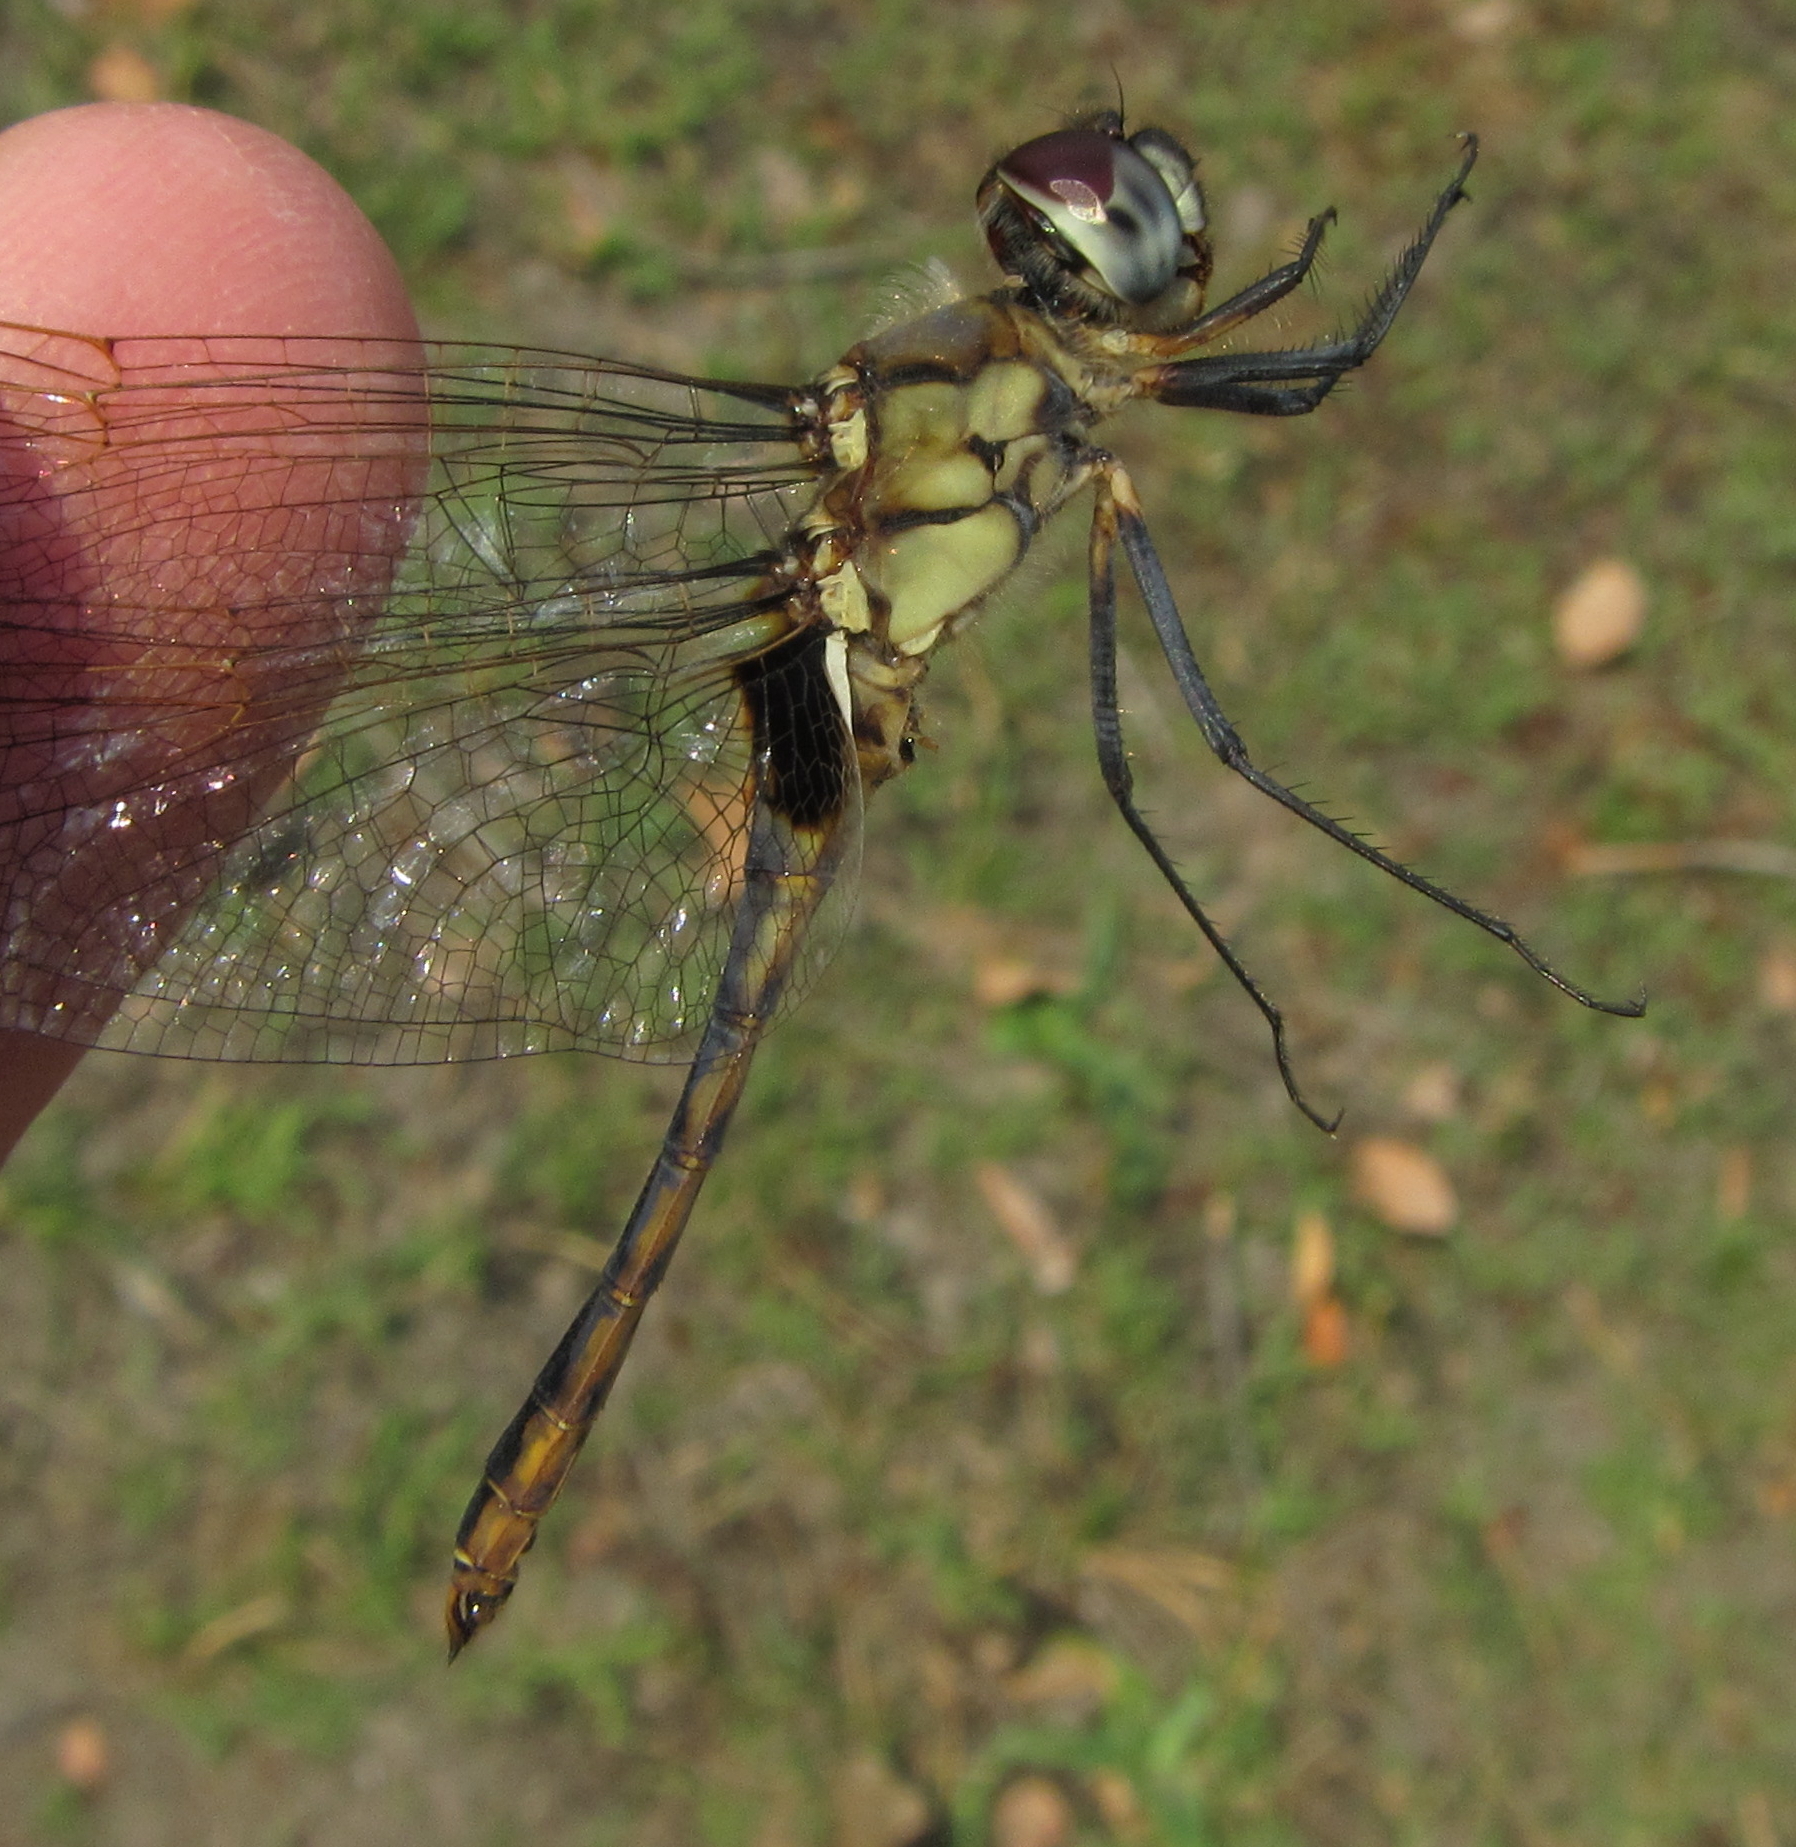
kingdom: Animalia
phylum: Arthropoda
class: Insecta
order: Odonata
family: Libellulidae
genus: Urothemis
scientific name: Urothemis edwardsii
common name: Blue basker
